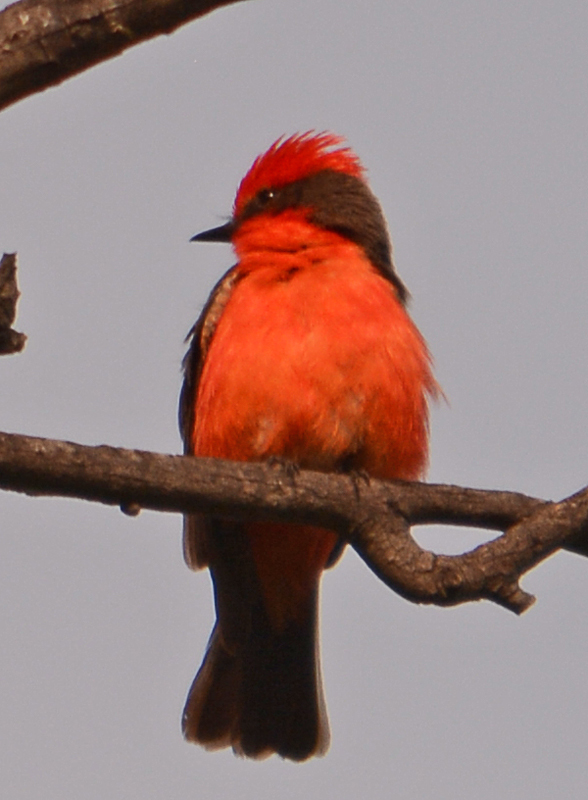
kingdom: Animalia
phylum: Chordata
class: Aves
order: Passeriformes
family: Tyrannidae
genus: Pyrocephalus
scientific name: Pyrocephalus rubinus
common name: Vermilion flycatcher
